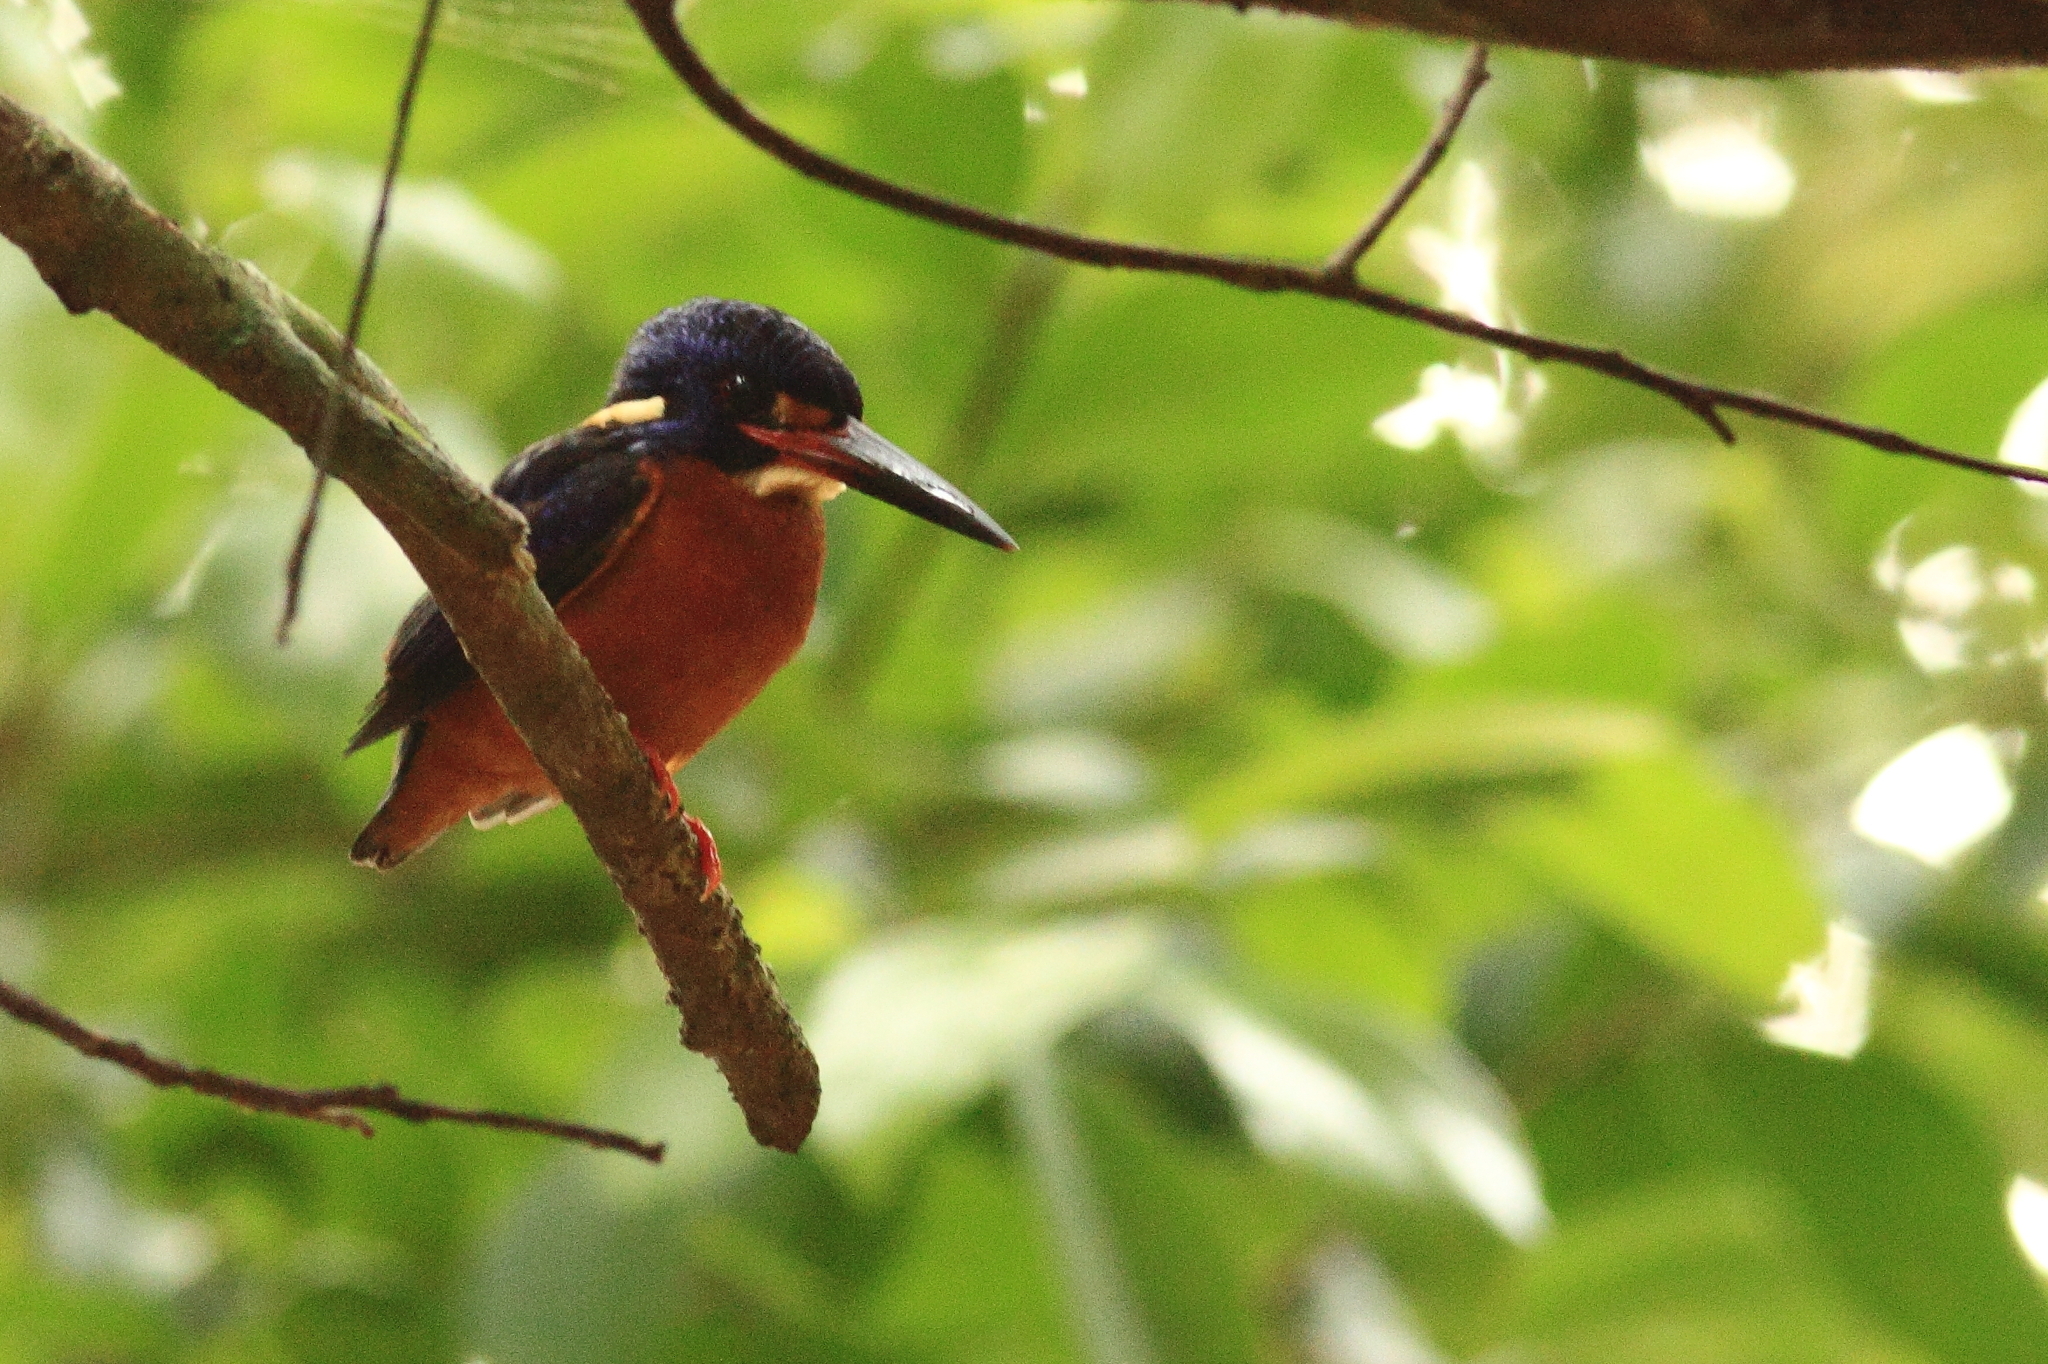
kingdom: Animalia
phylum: Chordata
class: Aves
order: Coraciiformes
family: Alcedinidae
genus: Alcedo
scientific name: Alcedo meninting
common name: Blue-eared kingfisher
